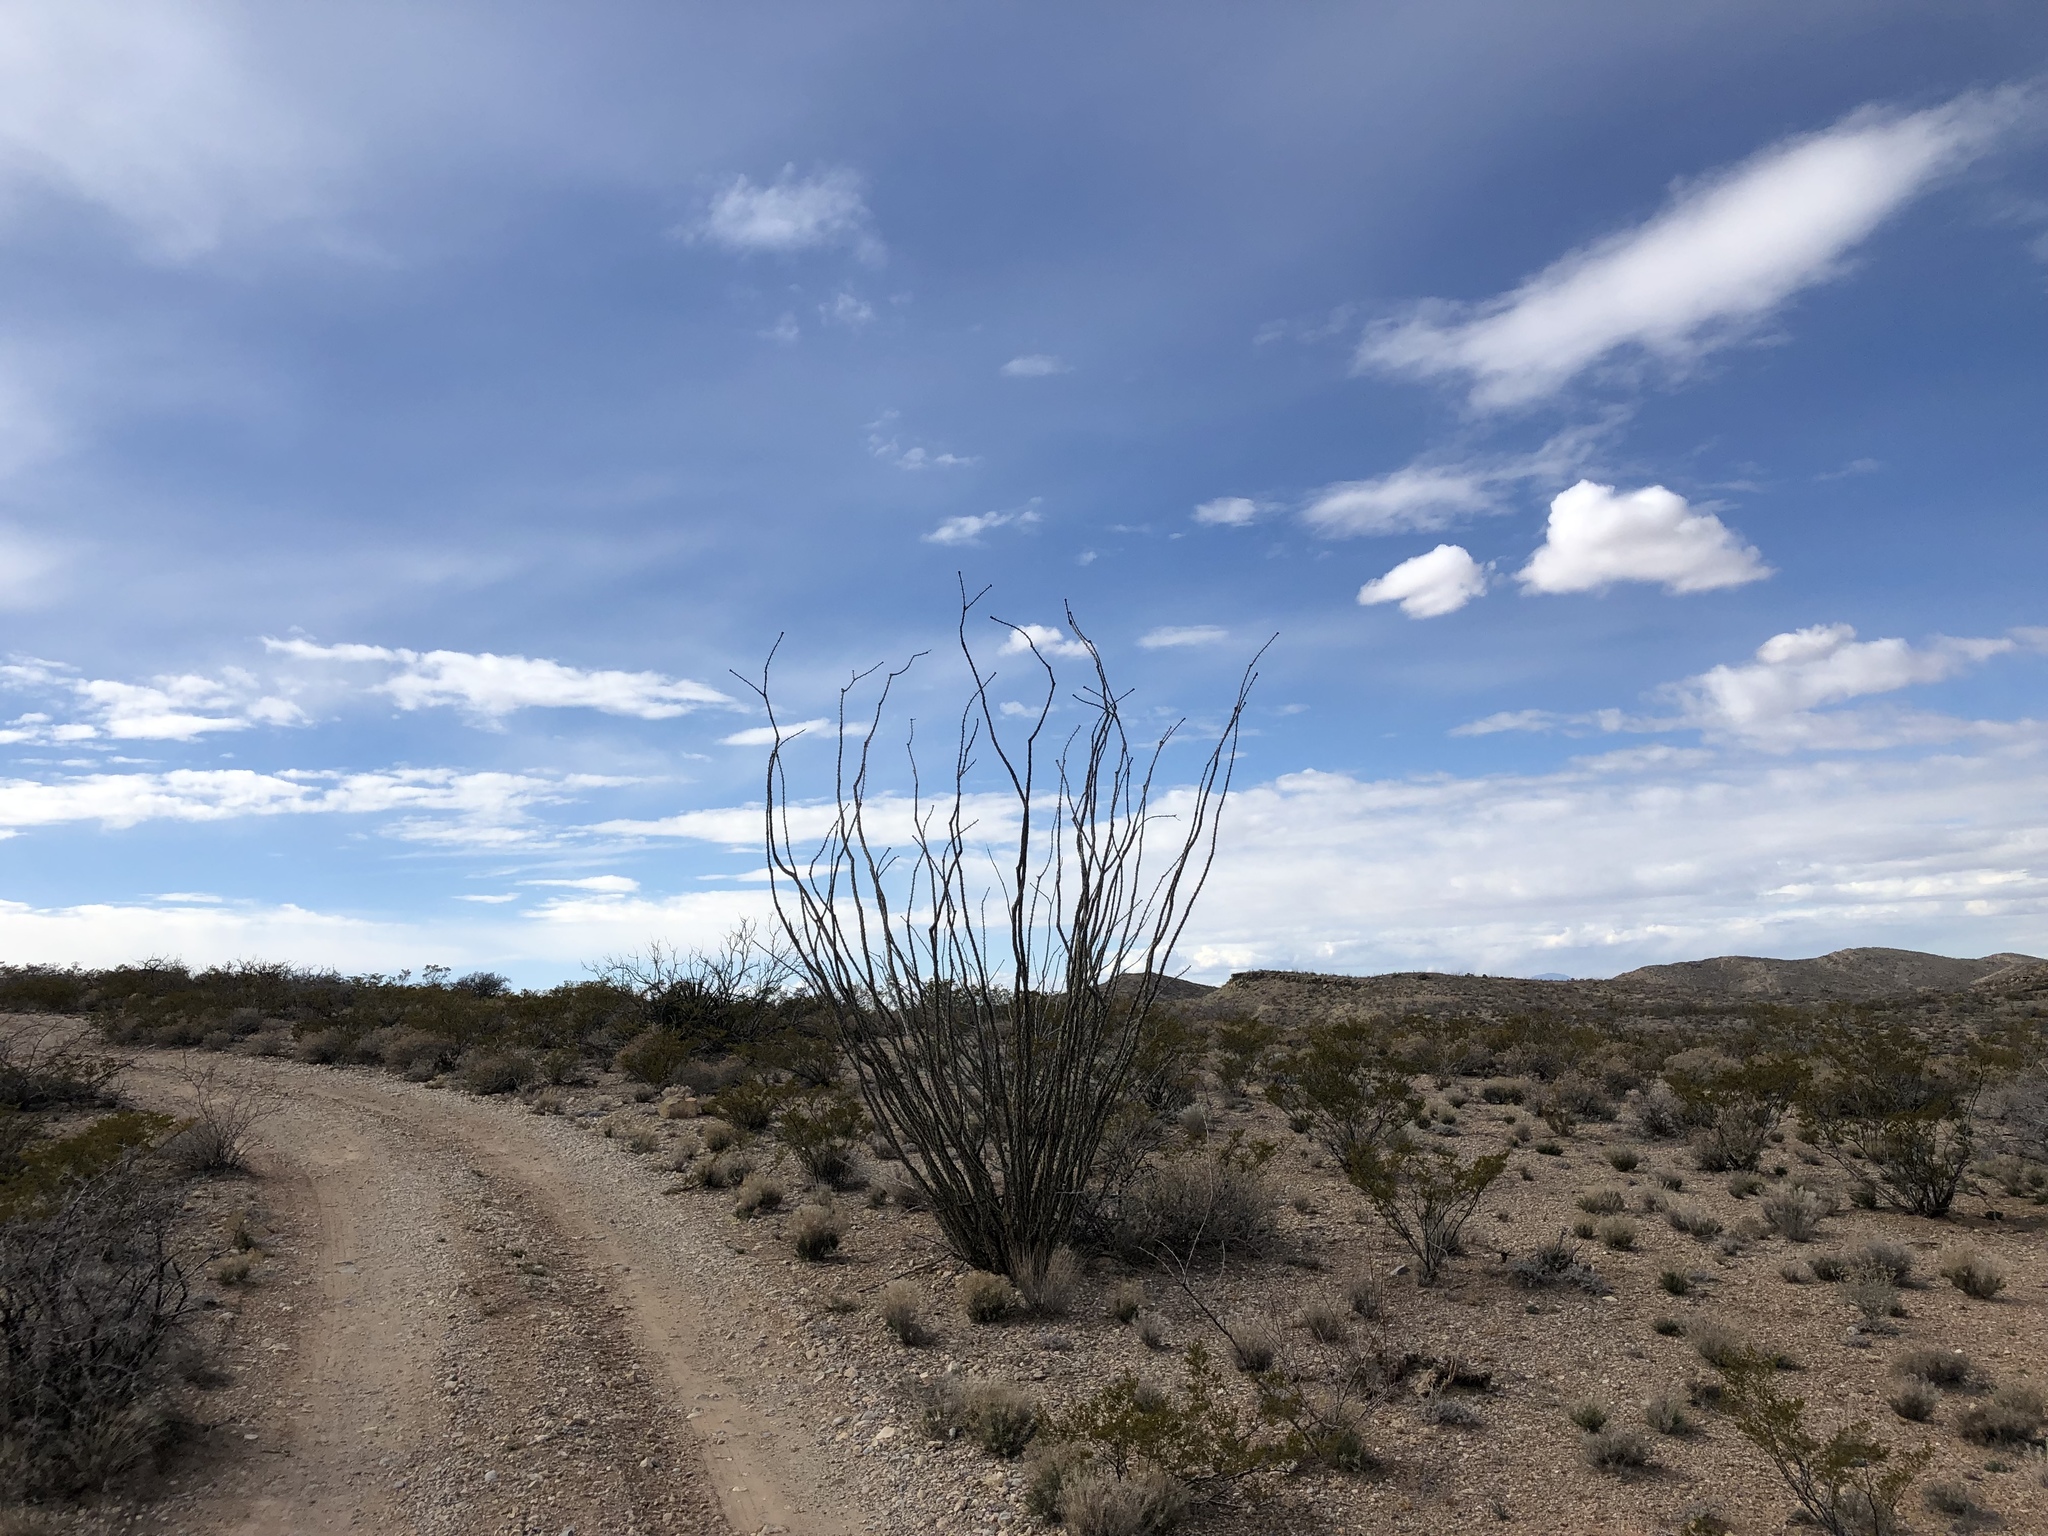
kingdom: Plantae
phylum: Tracheophyta
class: Magnoliopsida
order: Ericales
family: Fouquieriaceae
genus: Fouquieria
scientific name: Fouquieria splendens
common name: Vine-cactus
